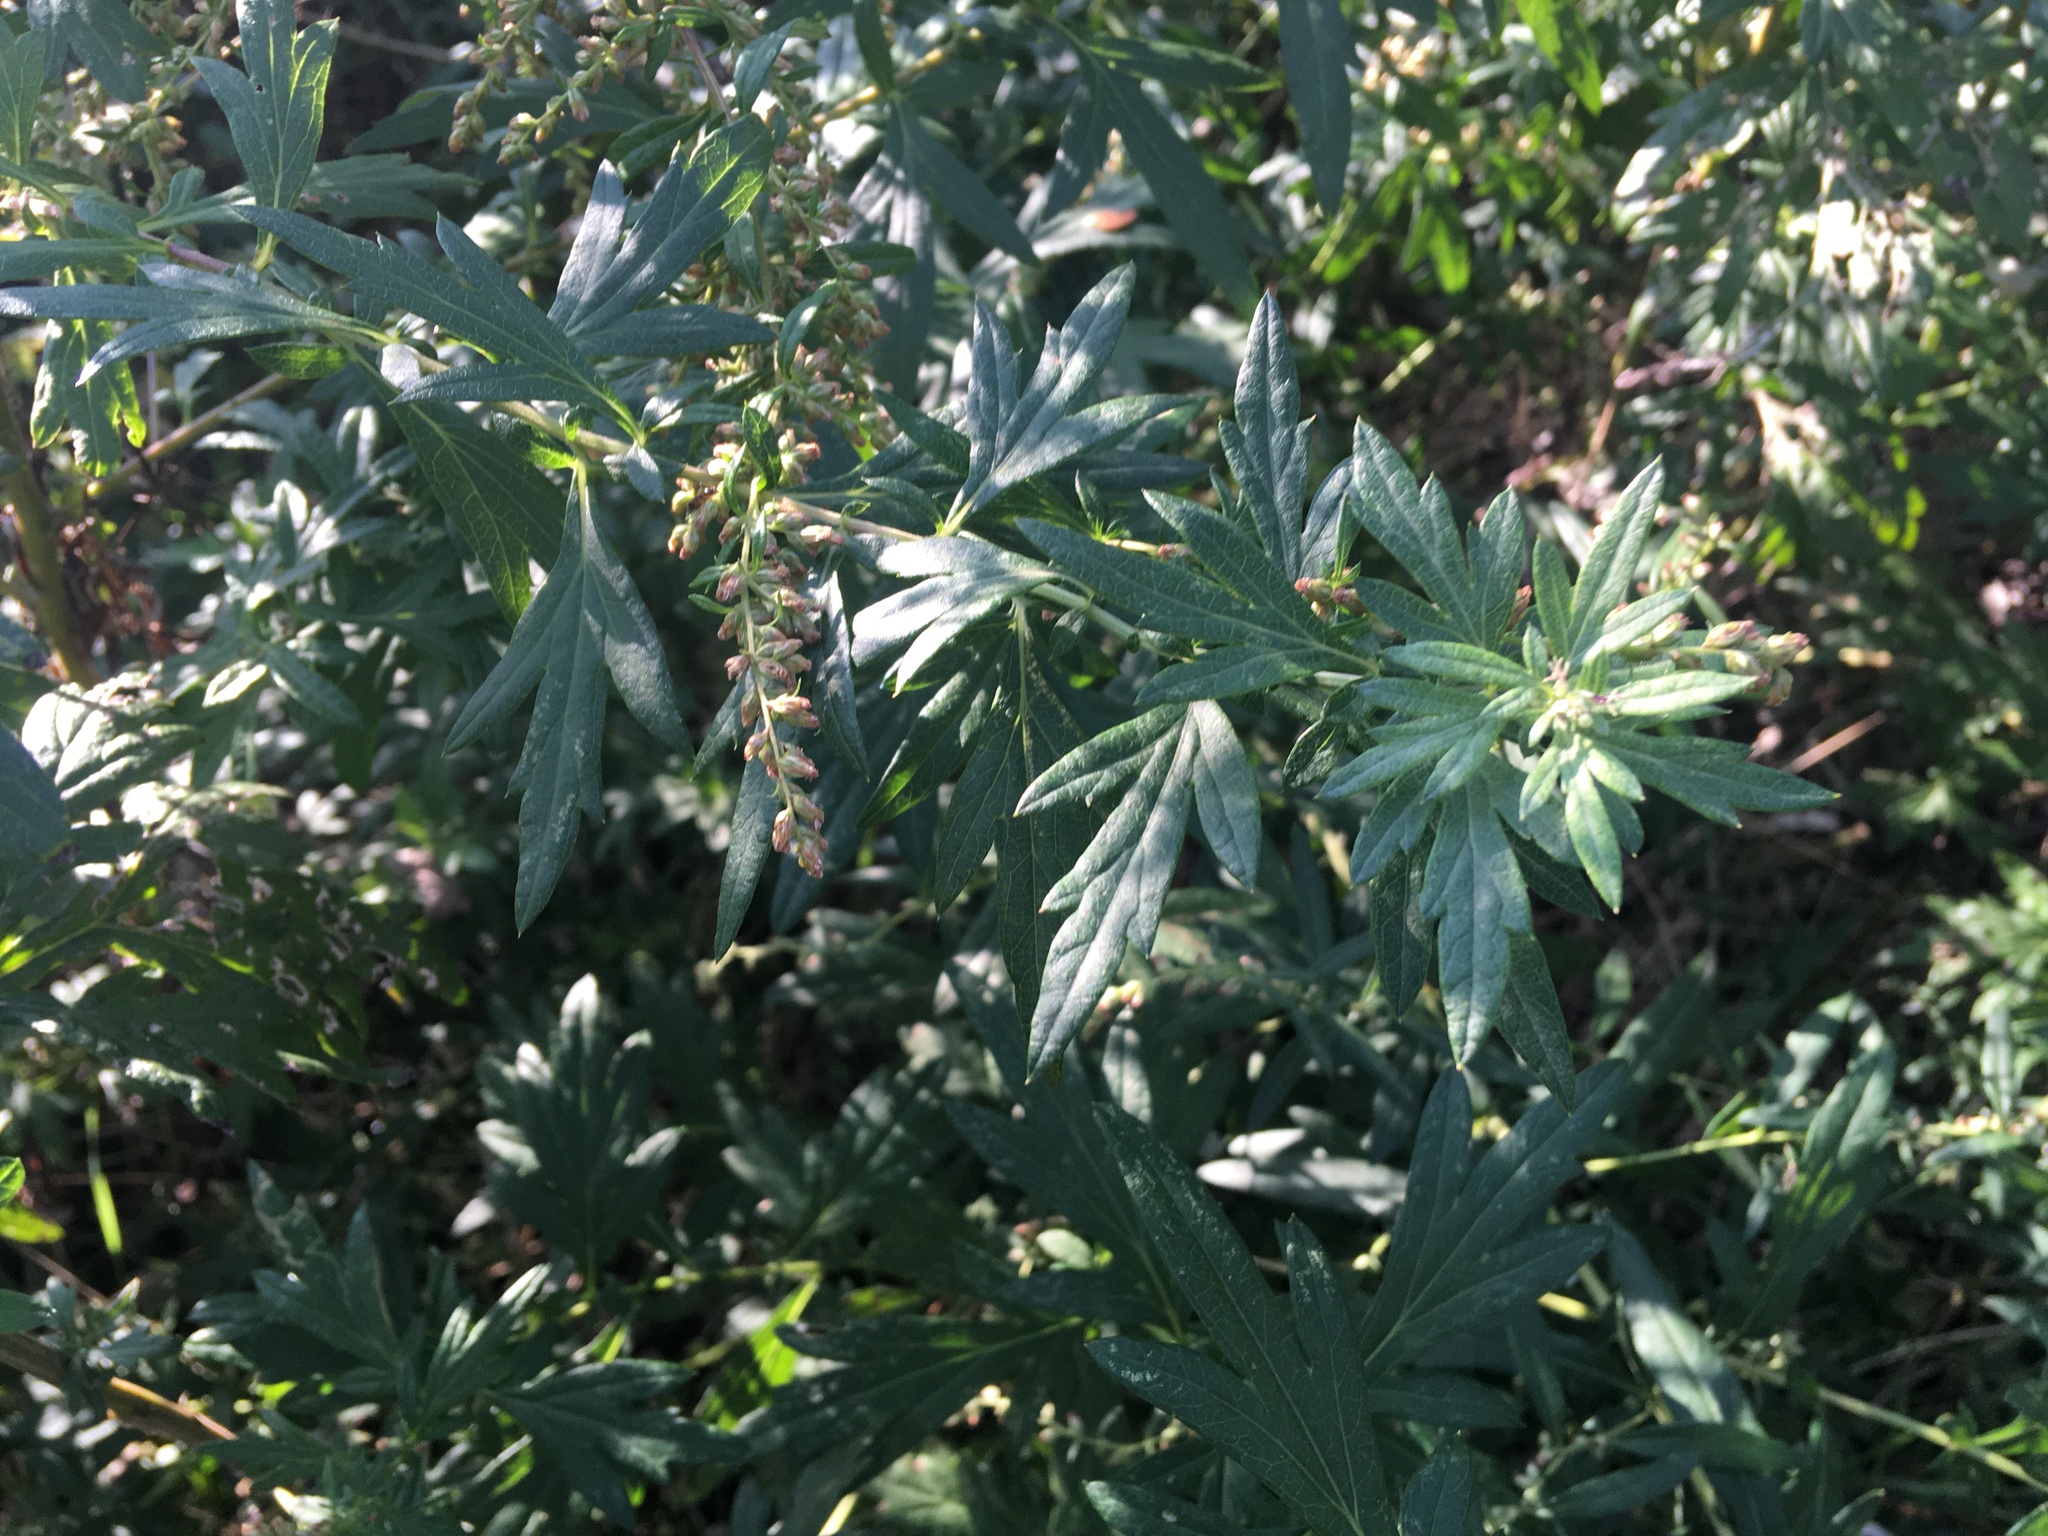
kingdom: Plantae
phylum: Tracheophyta
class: Magnoliopsida
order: Asterales
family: Asteraceae
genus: Artemisia
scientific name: Artemisia vulgaris
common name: Mugwort
